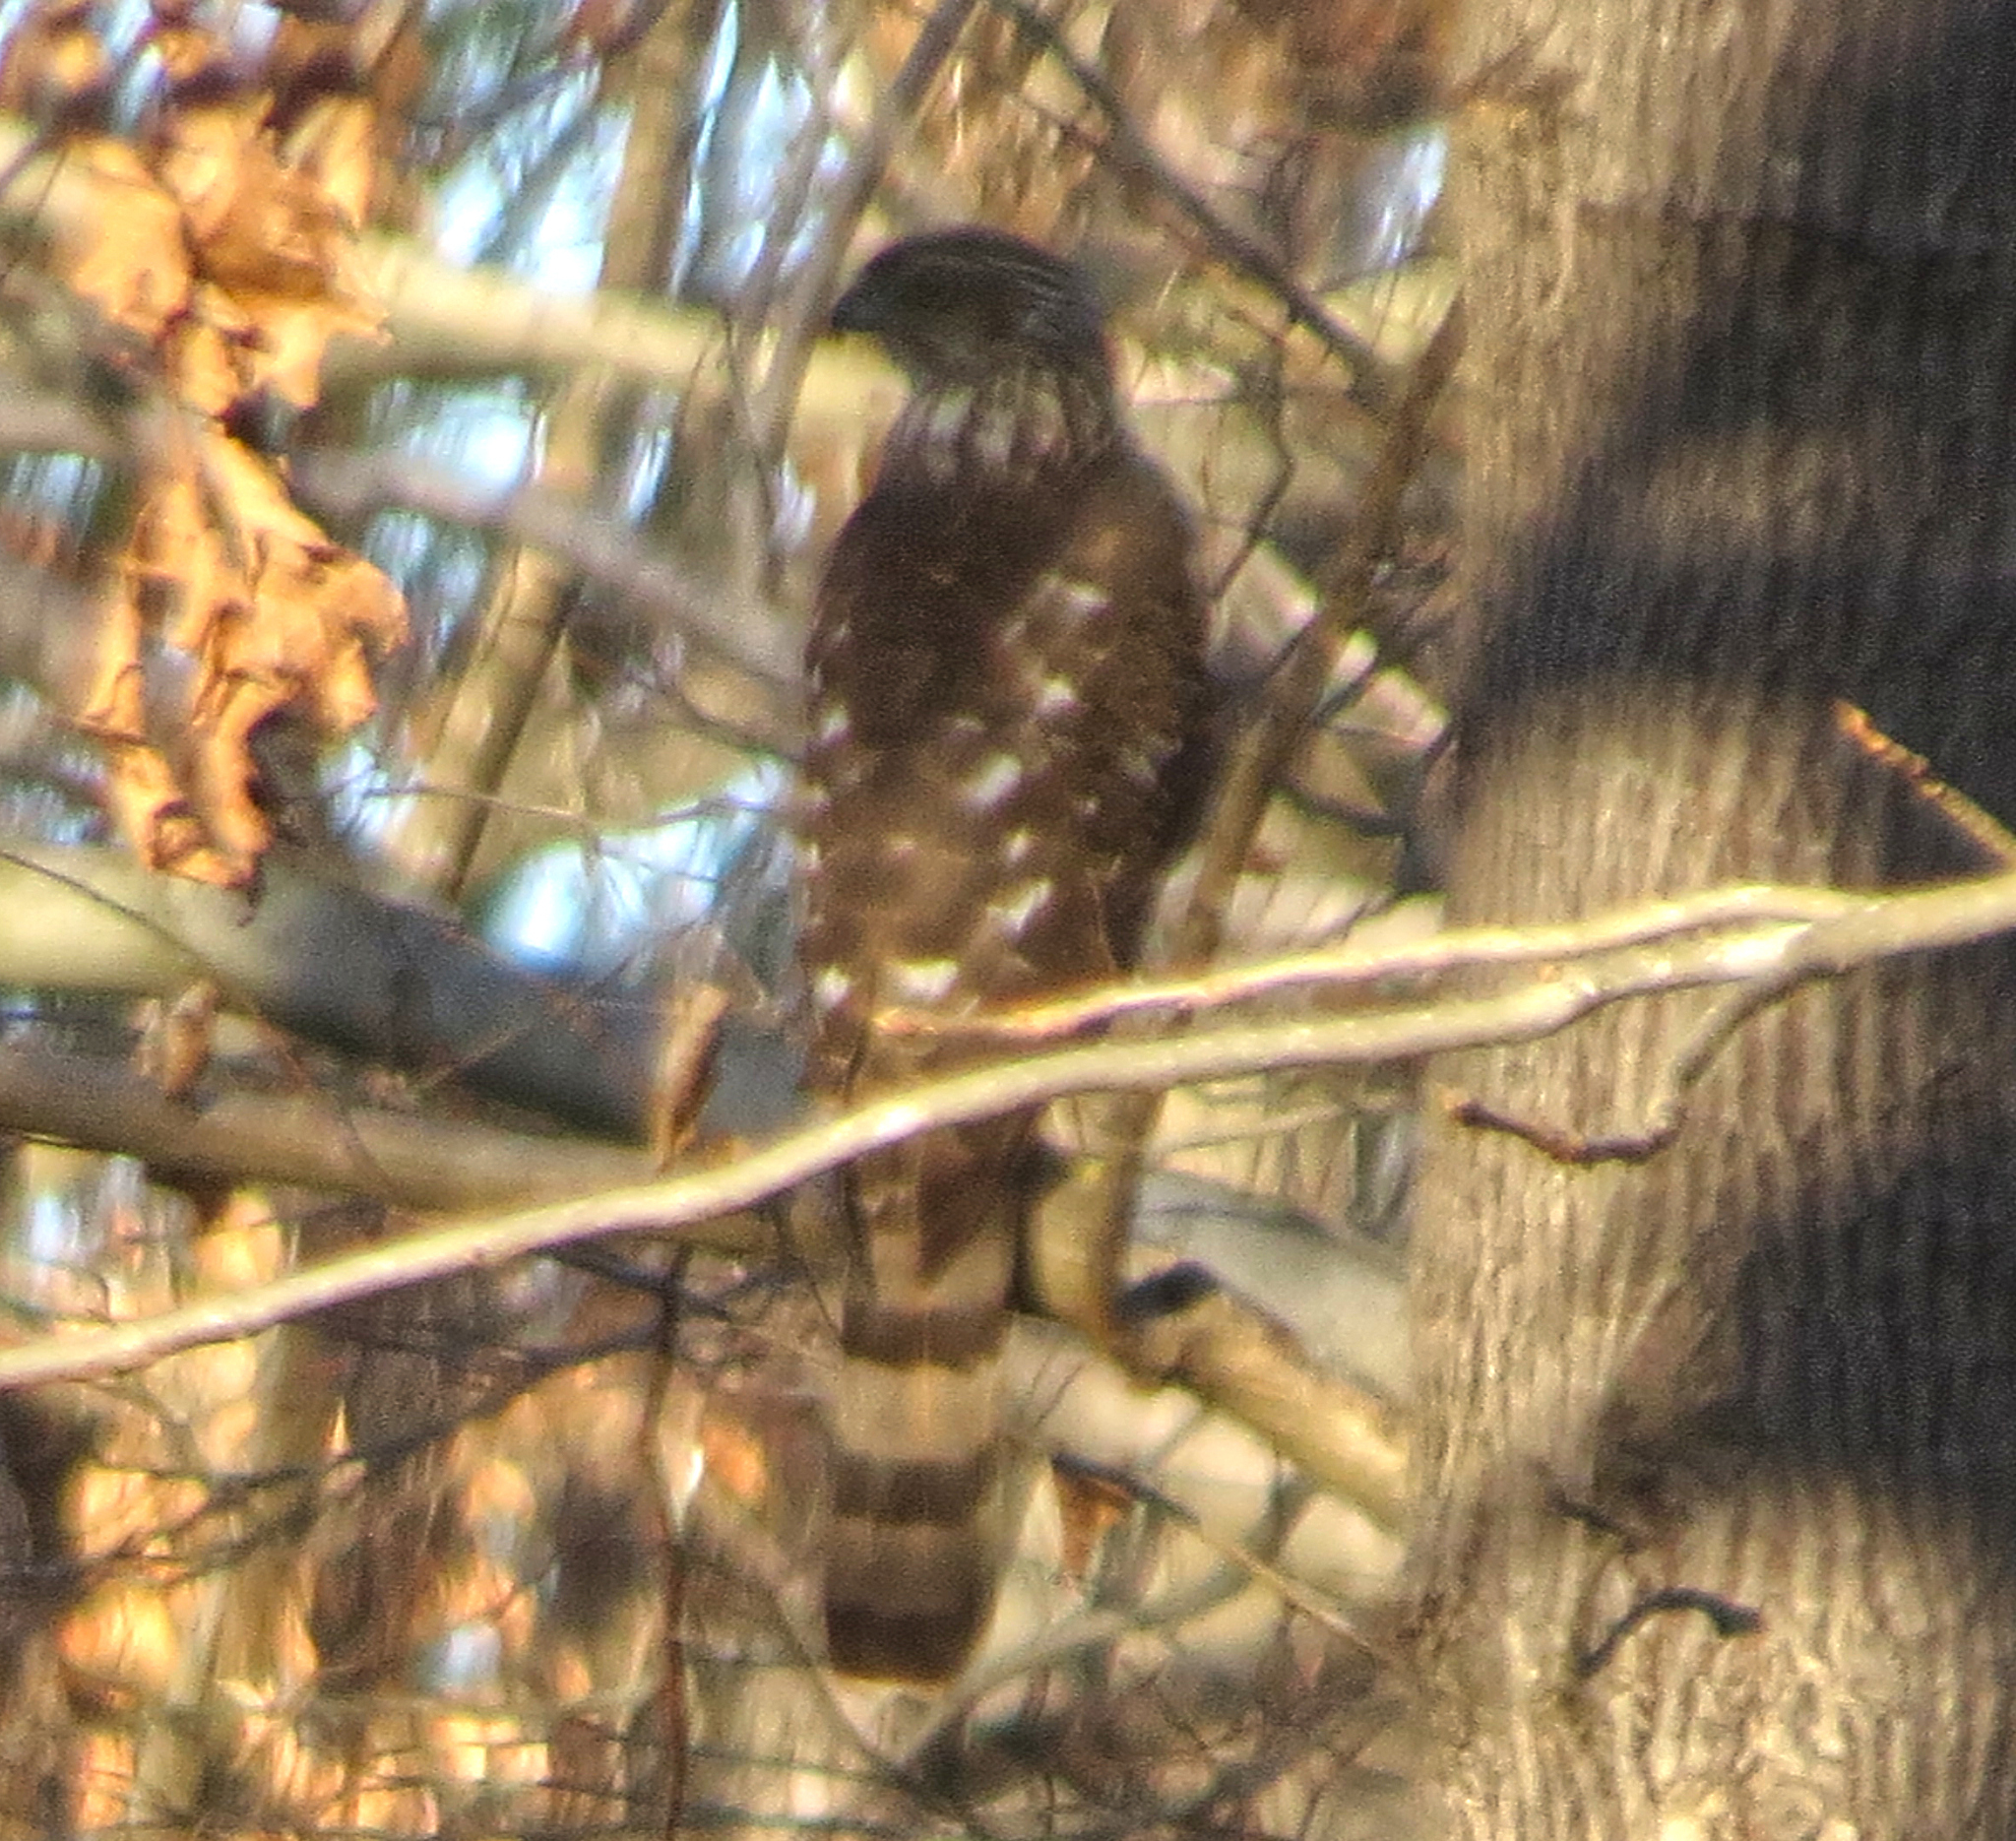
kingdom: Animalia
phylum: Chordata
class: Aves
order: Accipitriformes
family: Accipitridae
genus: Accipiter
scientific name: Accipiter cooperii
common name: Cooper's hawk
